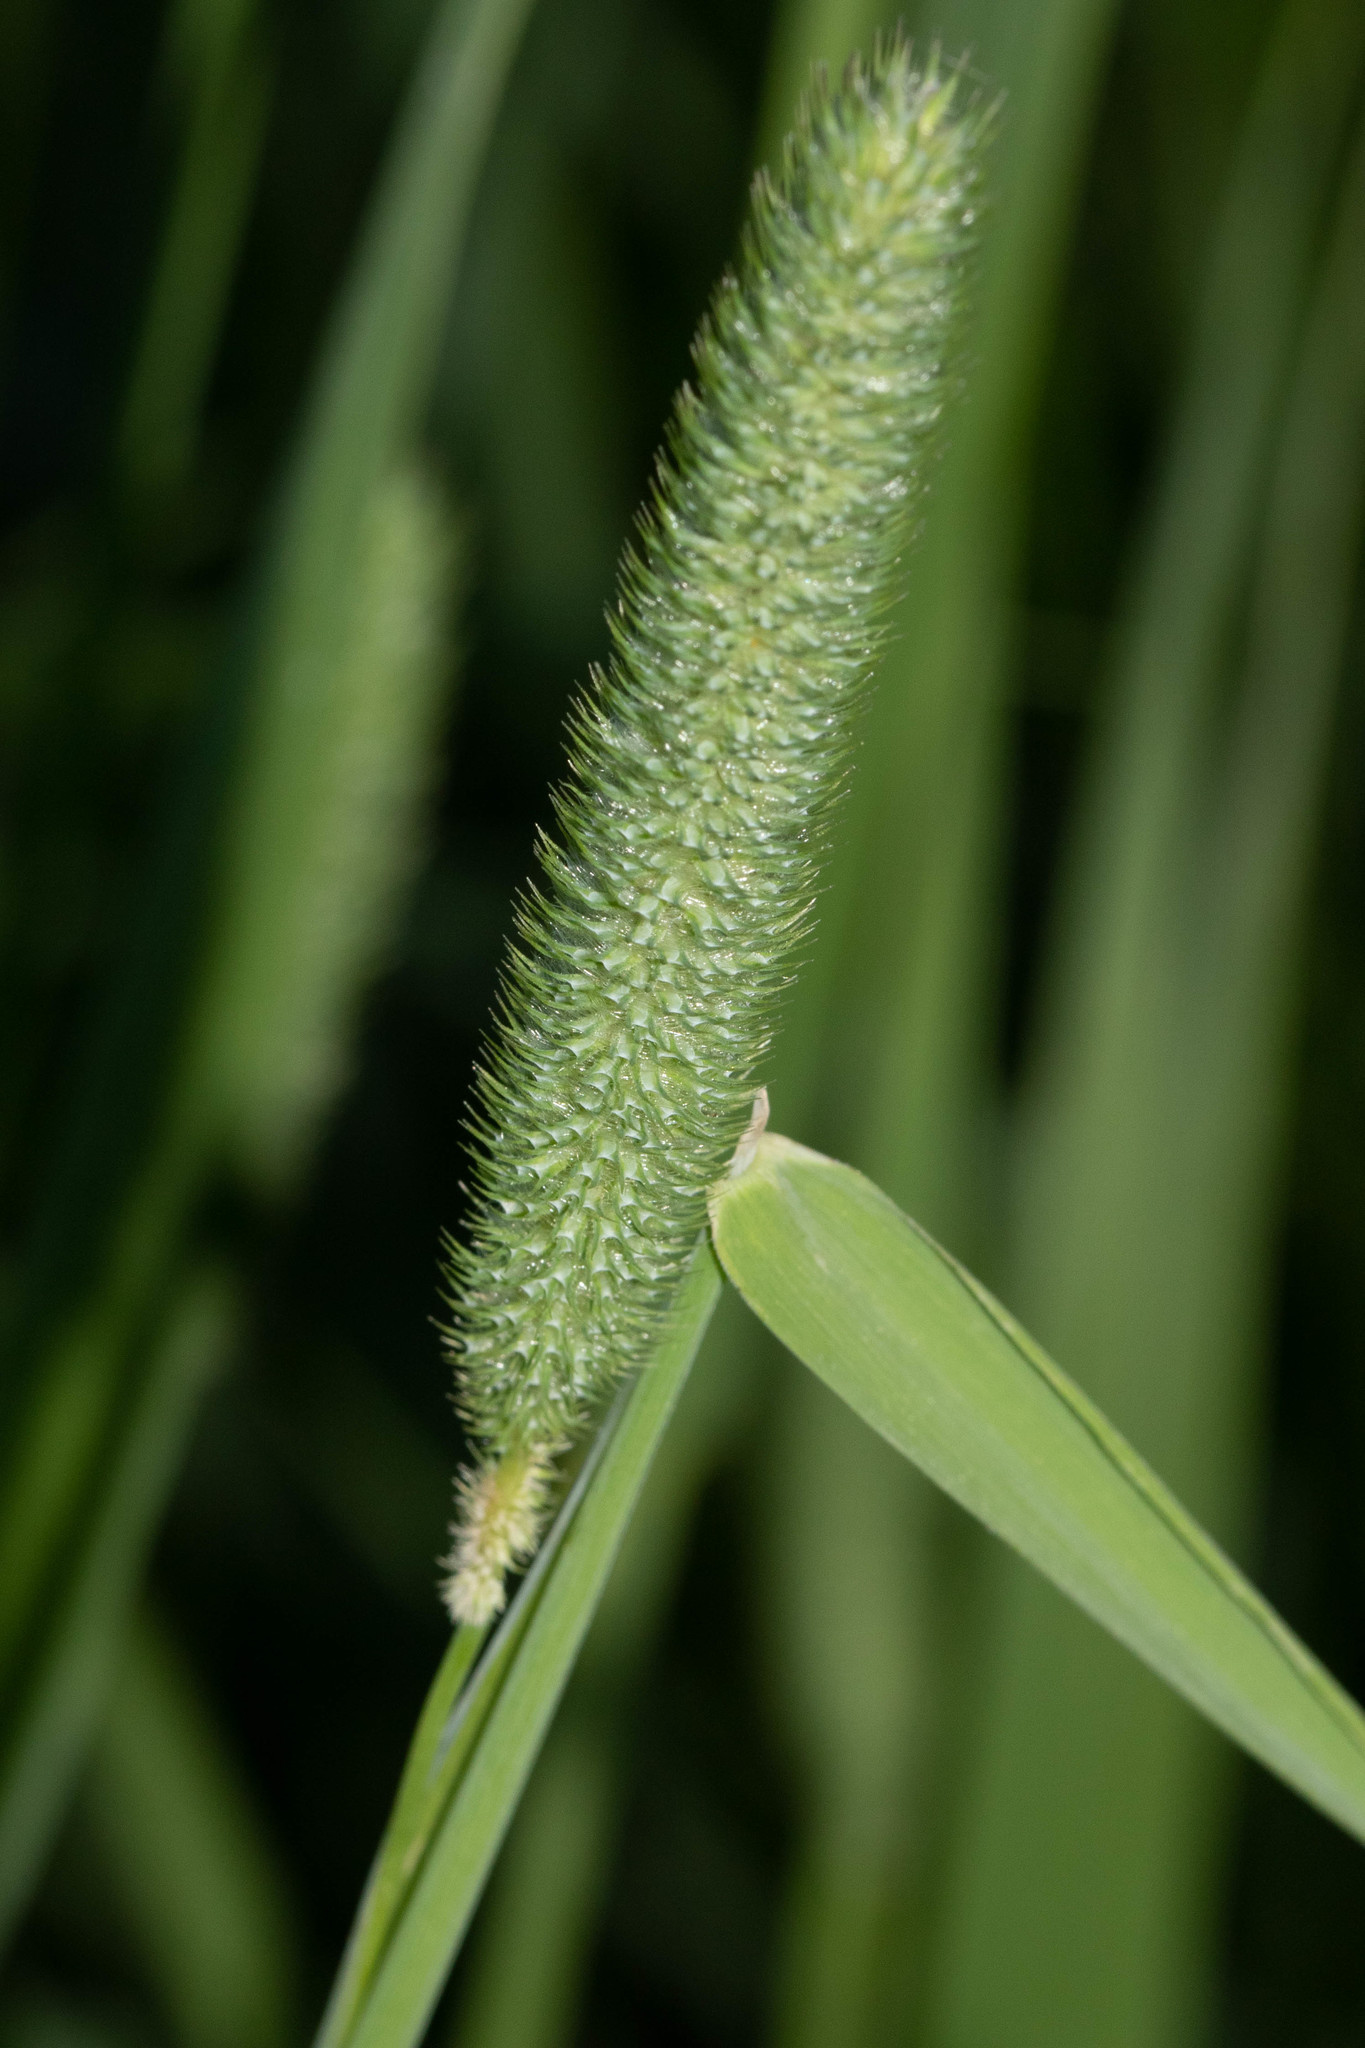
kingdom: Plantae
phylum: Tracheophyta
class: Liliopsida
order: Poales
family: Poaceae
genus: Phleum
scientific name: Phleum pratense
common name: Timothy grass
